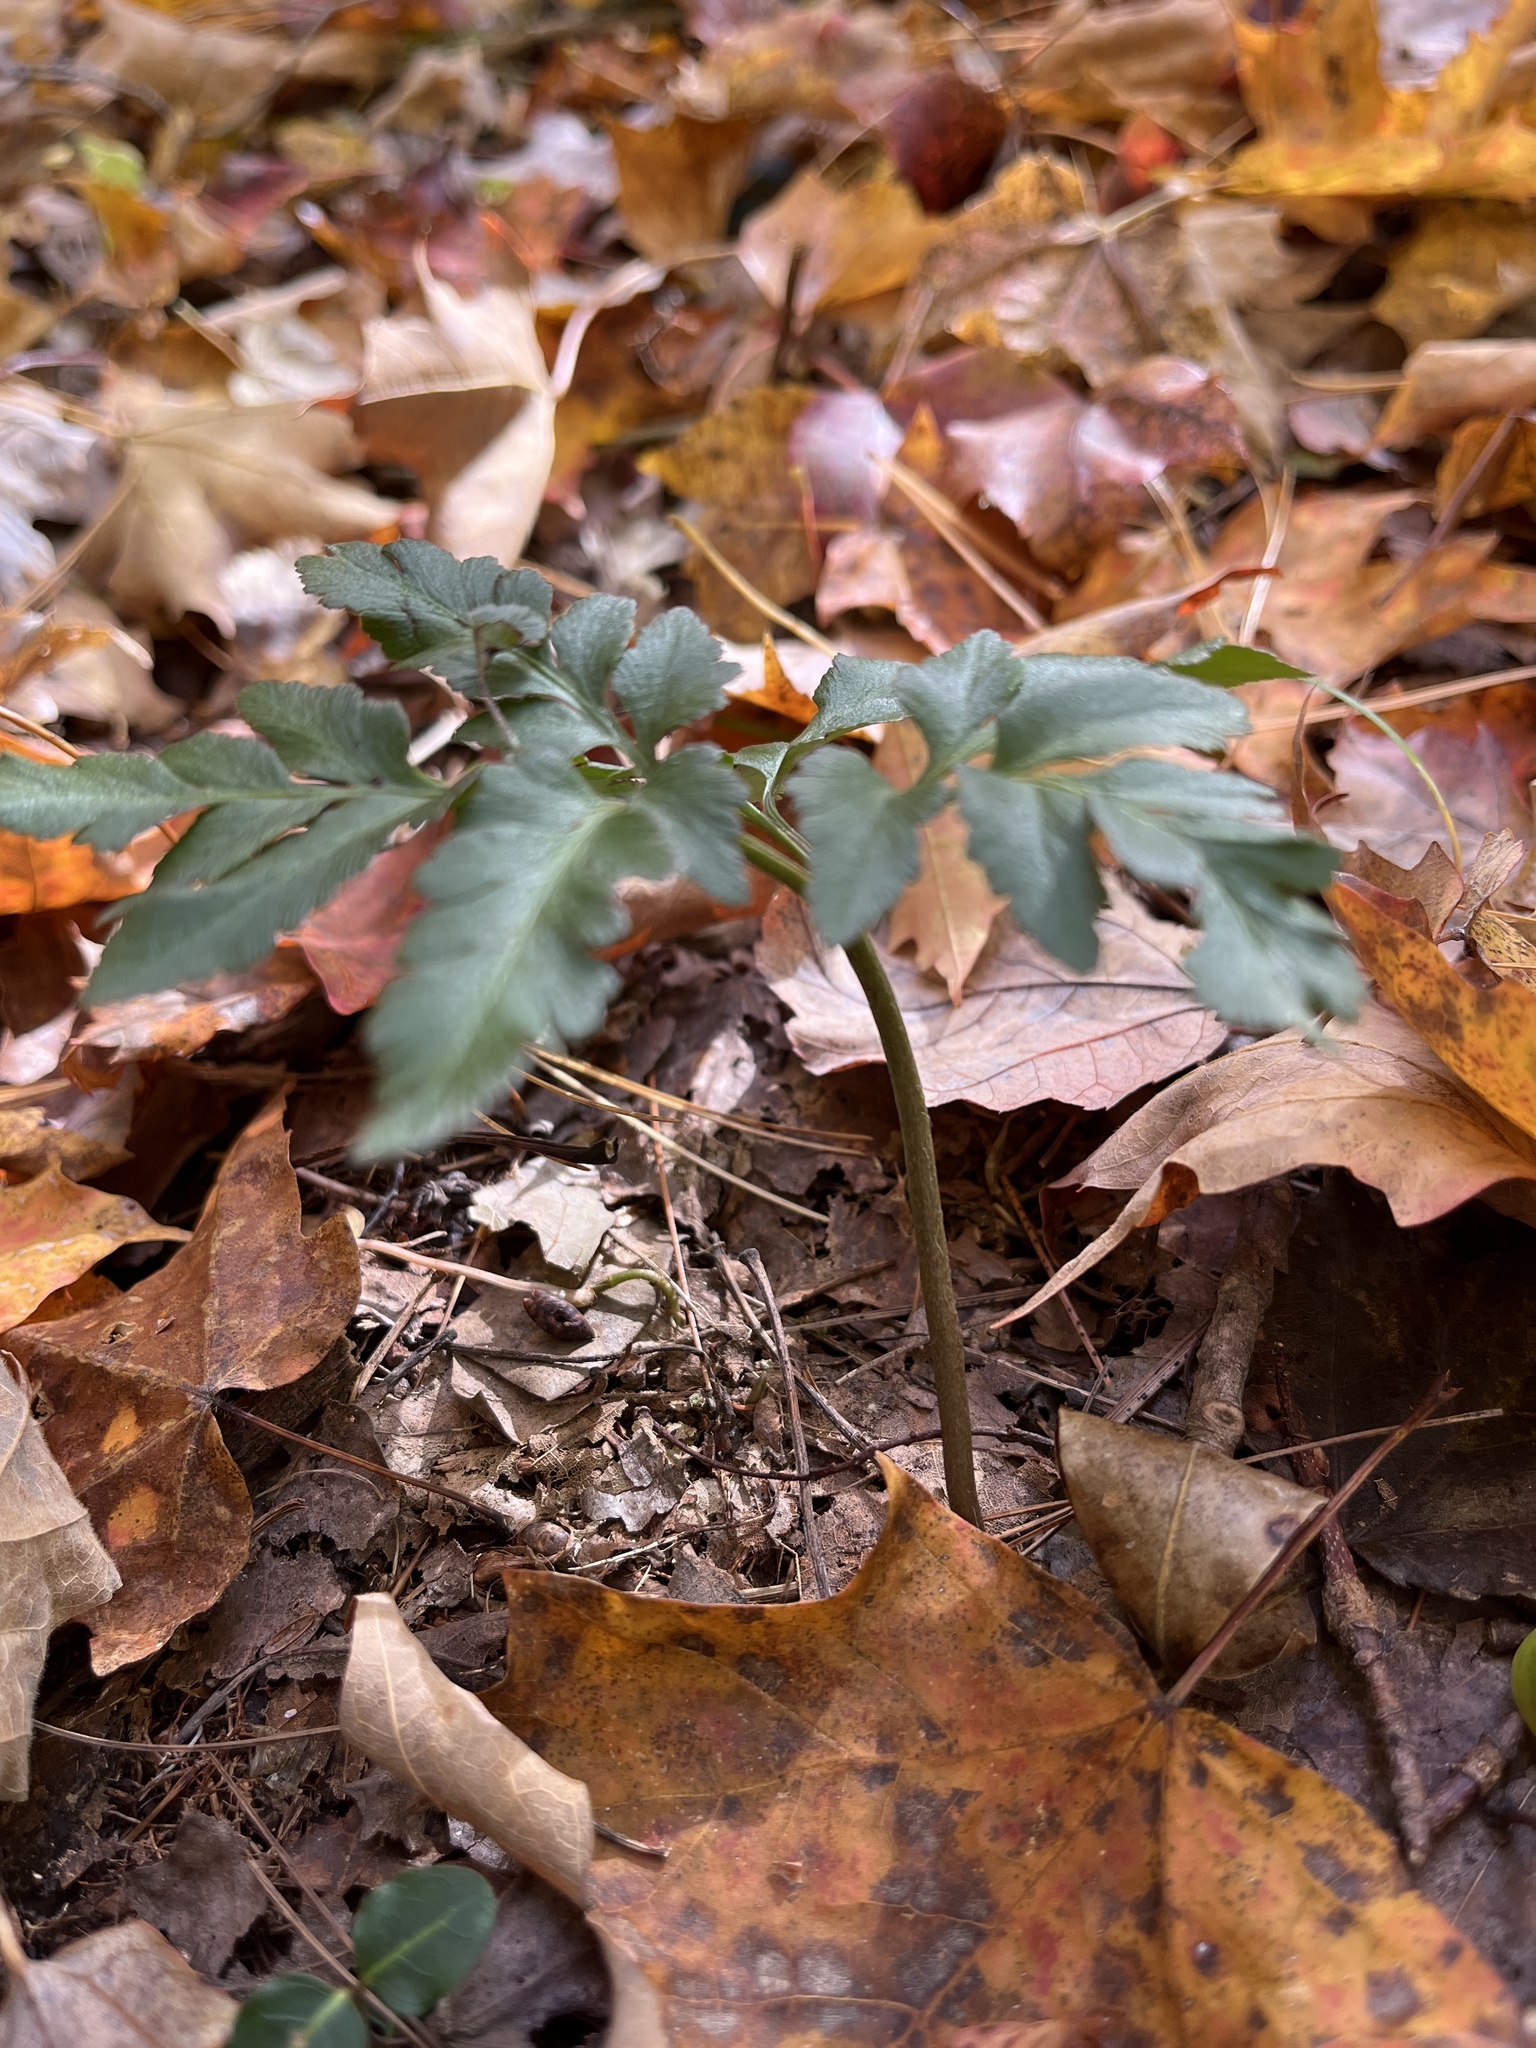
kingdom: Plantae
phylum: Tracheophyta
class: Polypodiopsida
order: Ophioglossales
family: Ophioglossaceae
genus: Sceptridium
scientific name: Sceptridium dissectum
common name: Cut-leaved grapefern
